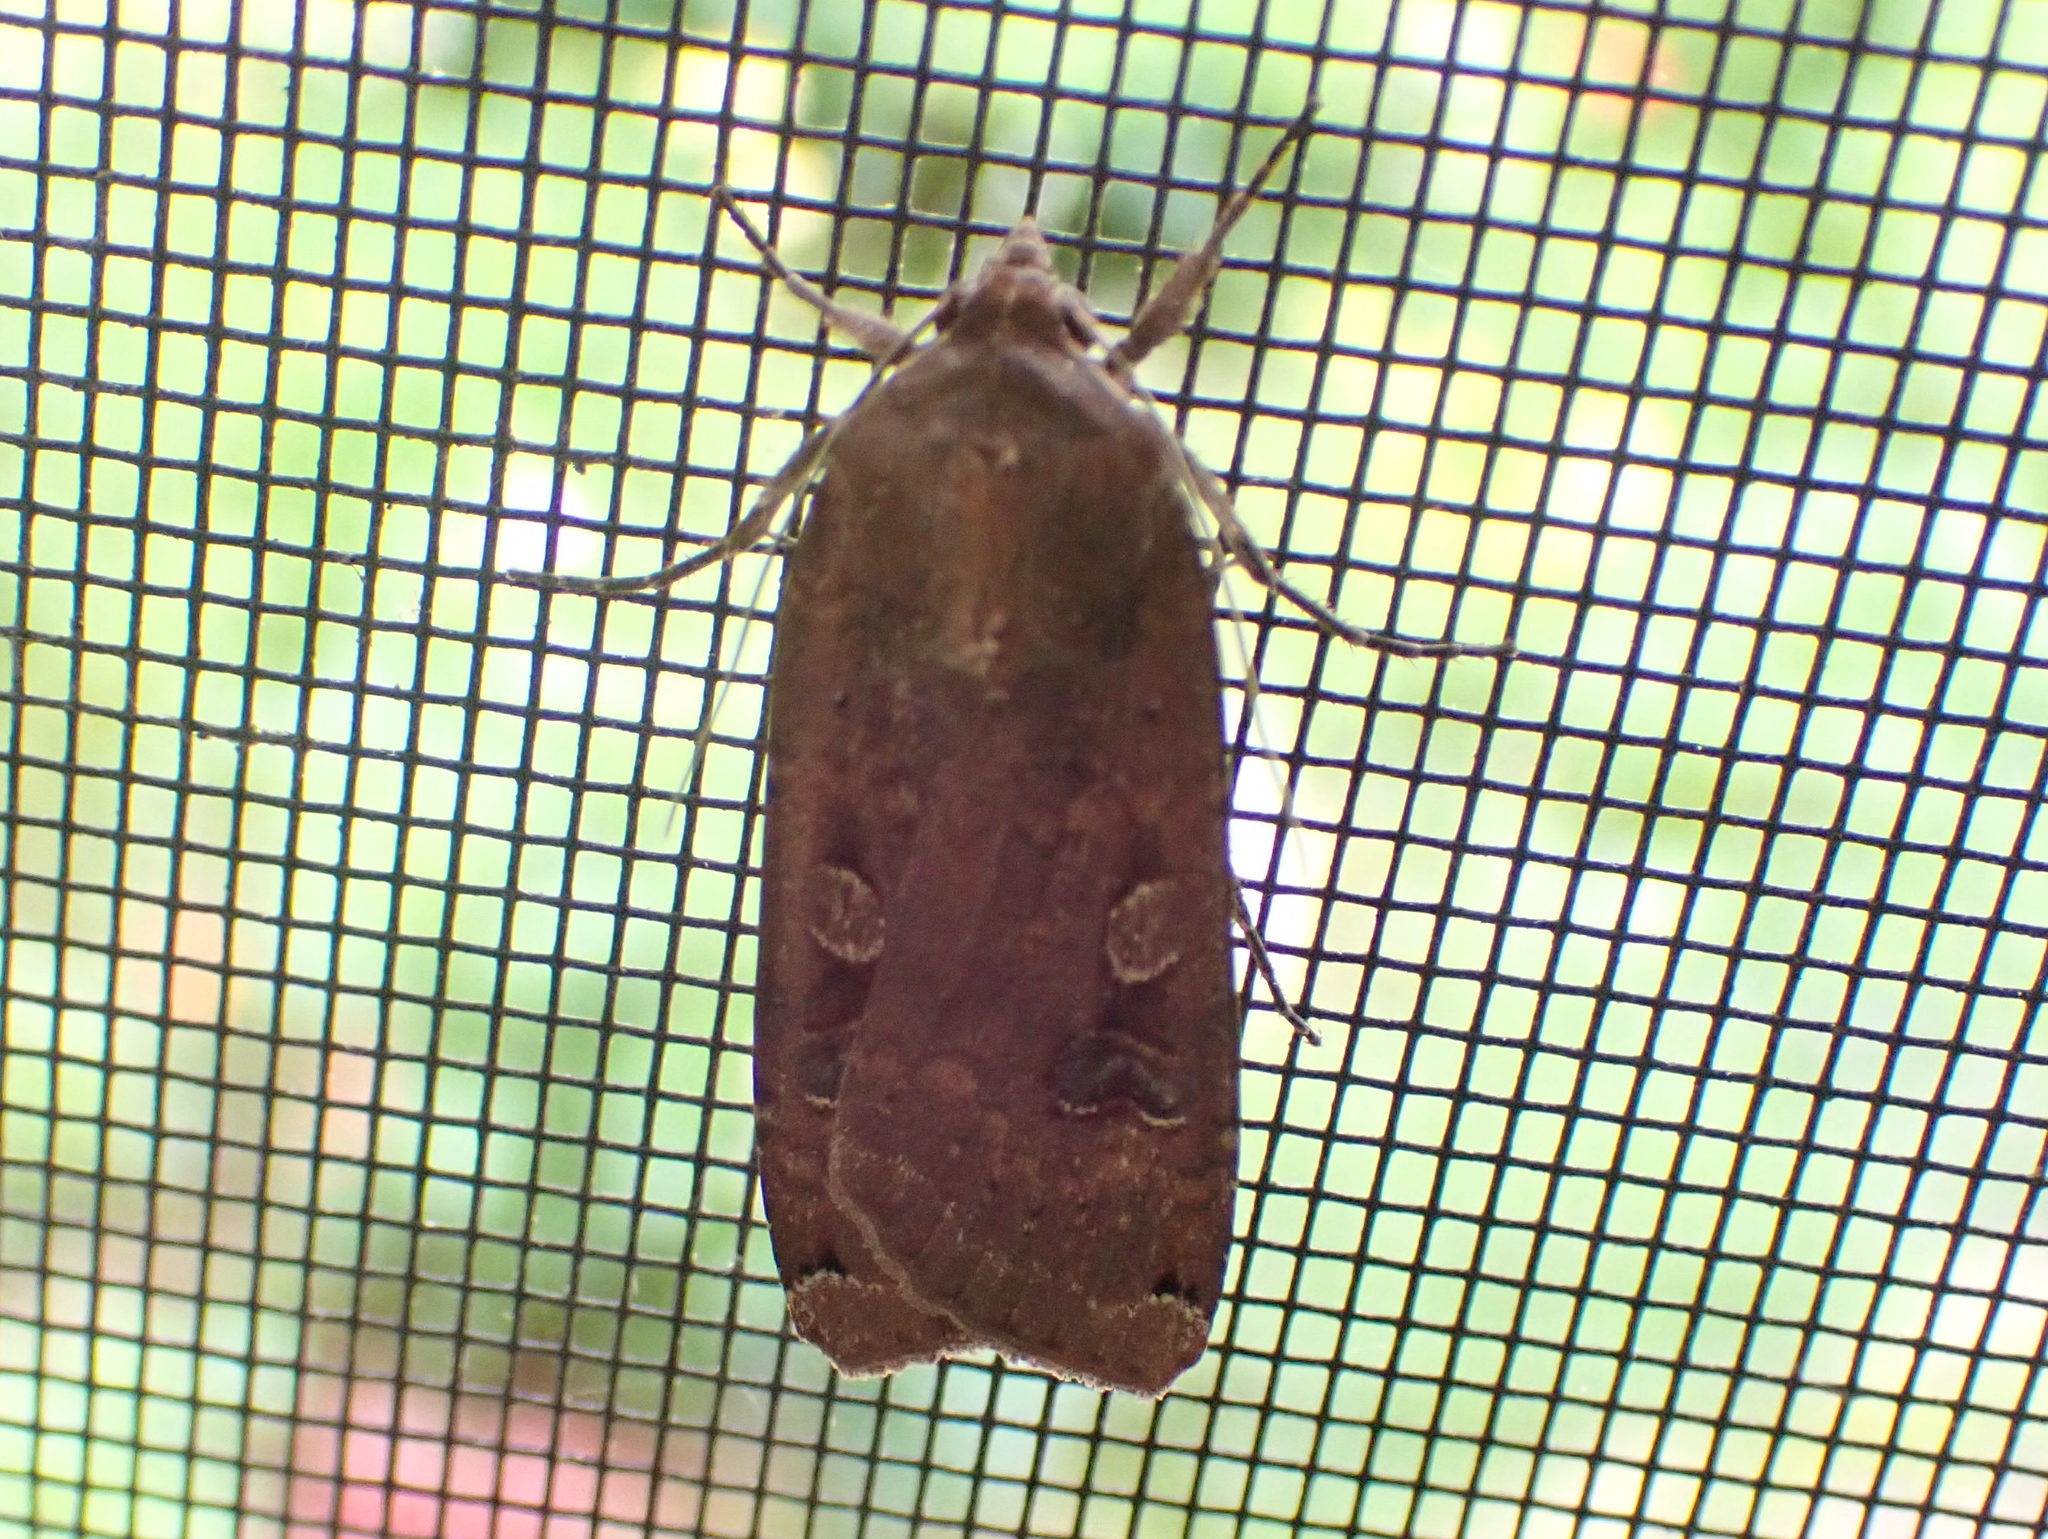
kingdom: Animalia
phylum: Arthropoda
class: Insecta
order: Lepidoptera
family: Noctuidae
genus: Noctua
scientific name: Noctua pronuba
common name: Large yellow underwing
